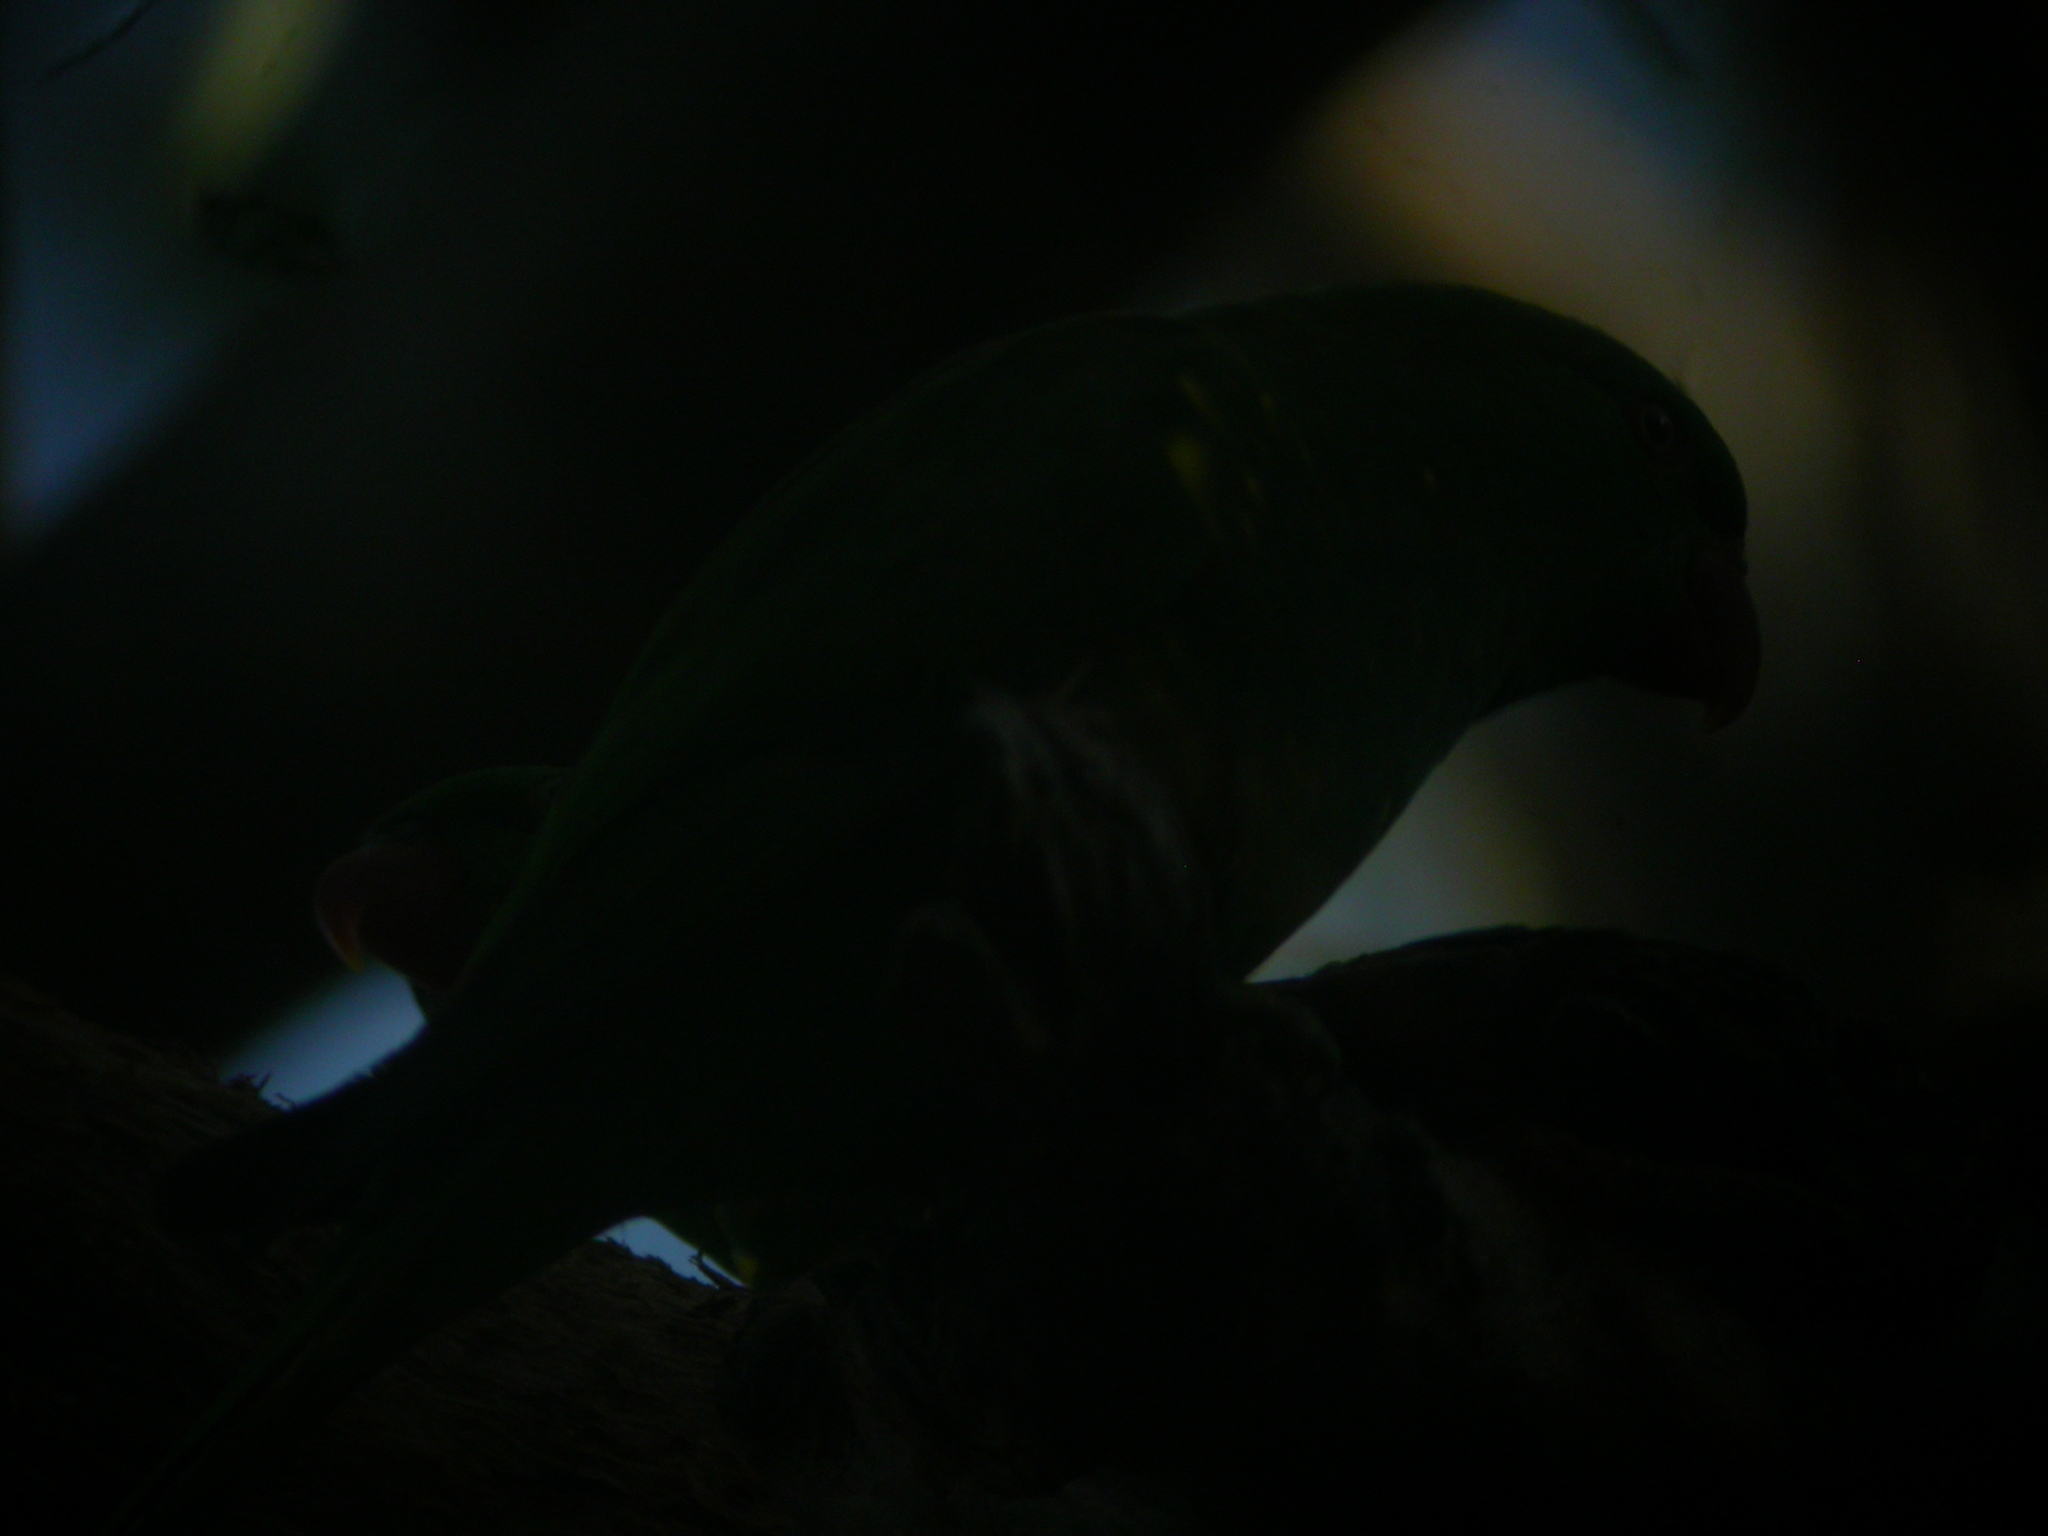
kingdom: Animalia
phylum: Chordata
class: Aves
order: Psittaciformes
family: Psittacidae
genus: Trichoglossus
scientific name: Trichoglossus chlorolepidotus
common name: Scaly-breasted lorikeet
